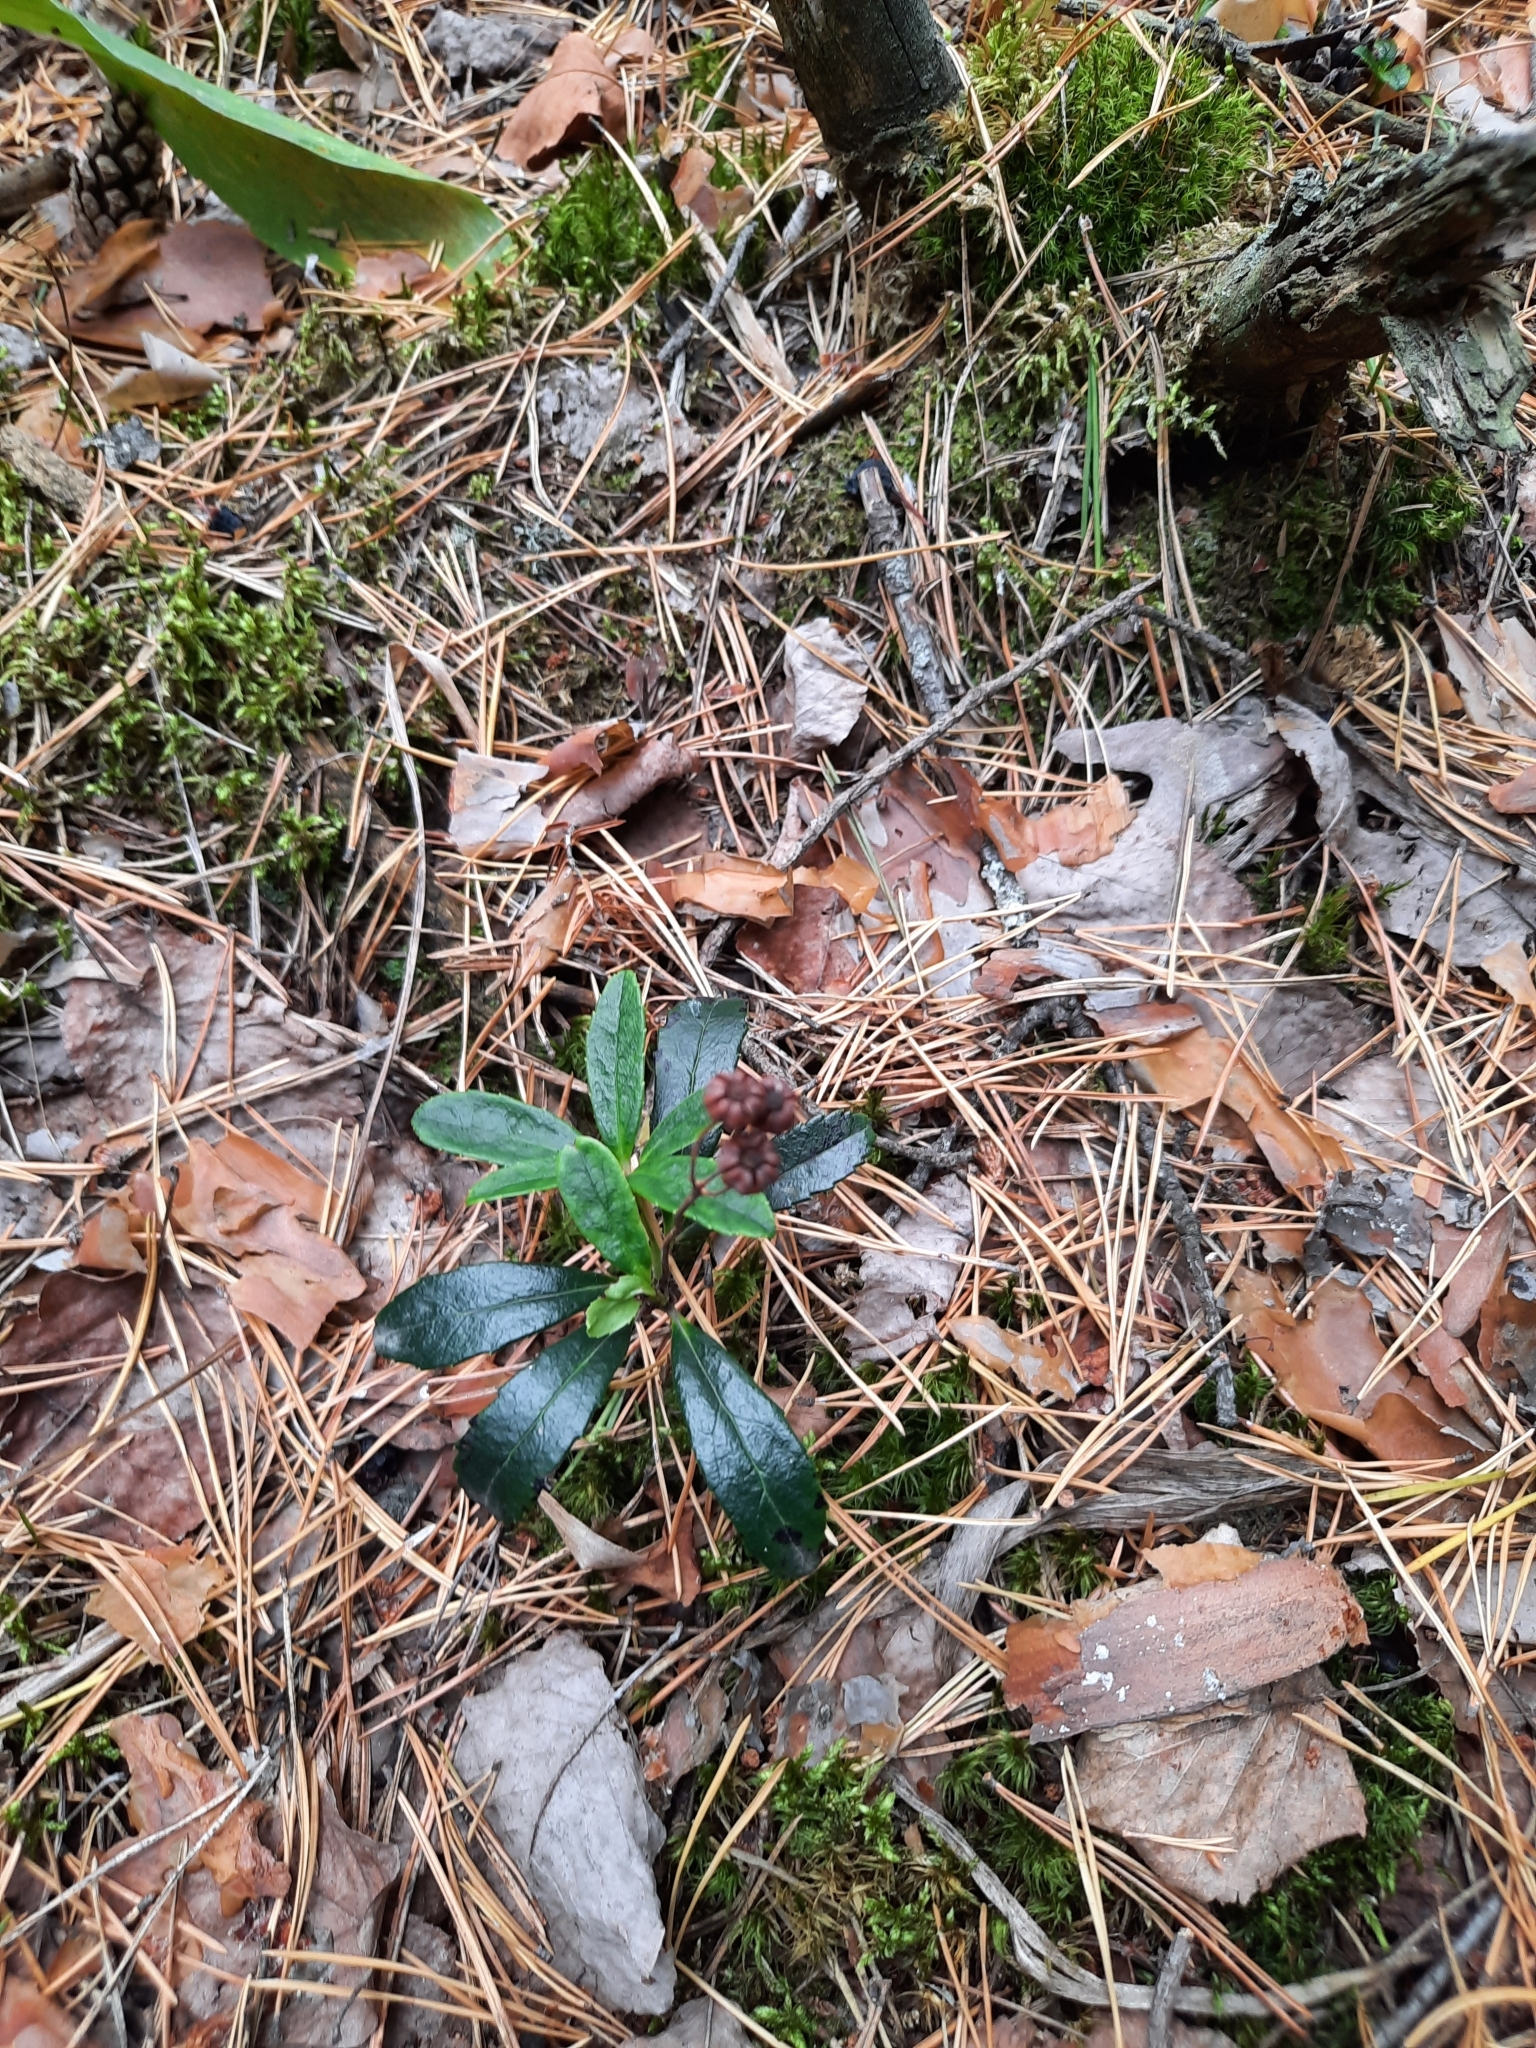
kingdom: Plantae
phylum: Tracheophyta
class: Magnoliopsida
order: Ericales
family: Ericaceae
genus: Chimaphila
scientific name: Chimaphila umbellata
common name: Pipsissewa
